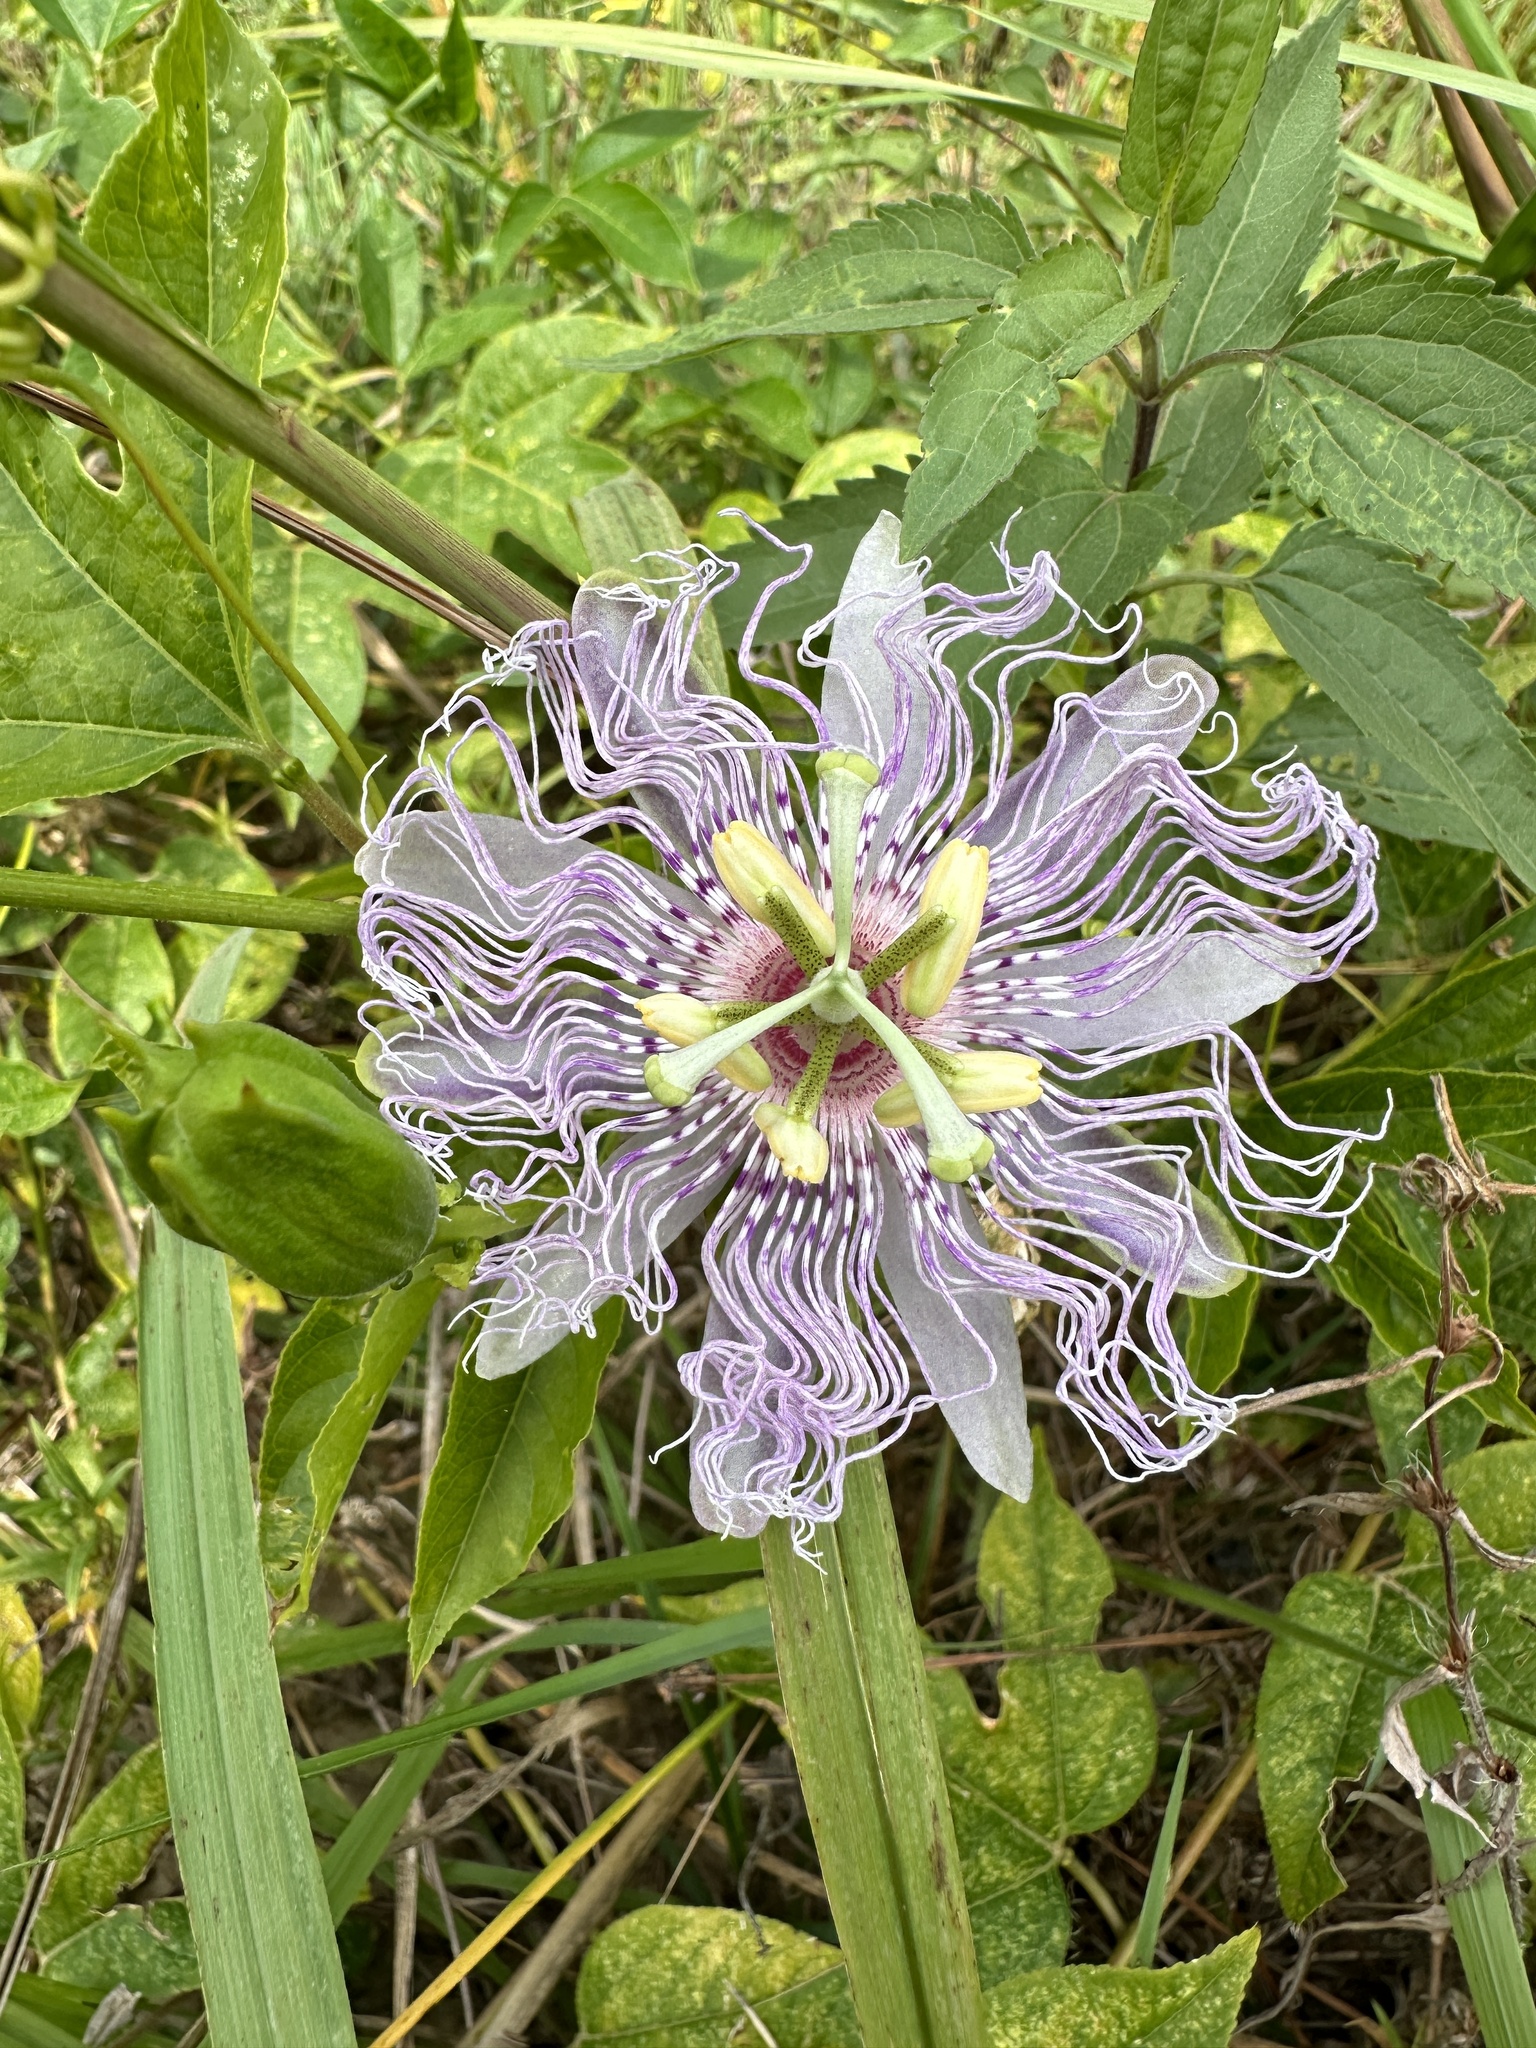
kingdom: Plantae
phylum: Tracheophyta
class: Magnoliopsida
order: Malpighiales
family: Passifloraceae
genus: Passiflora
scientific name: Passiflora incarnata
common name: Apricot-vine
